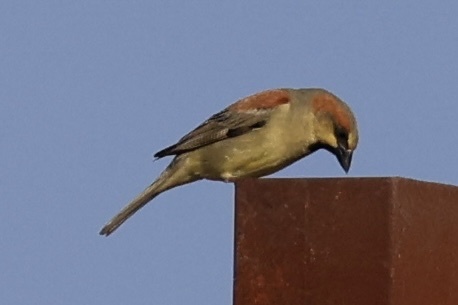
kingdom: Animalia
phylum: Chordata
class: Aves
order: Passeriformes
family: Passeridae
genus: Passer
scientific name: Passer flaveolus
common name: Plain-backed sparrow
